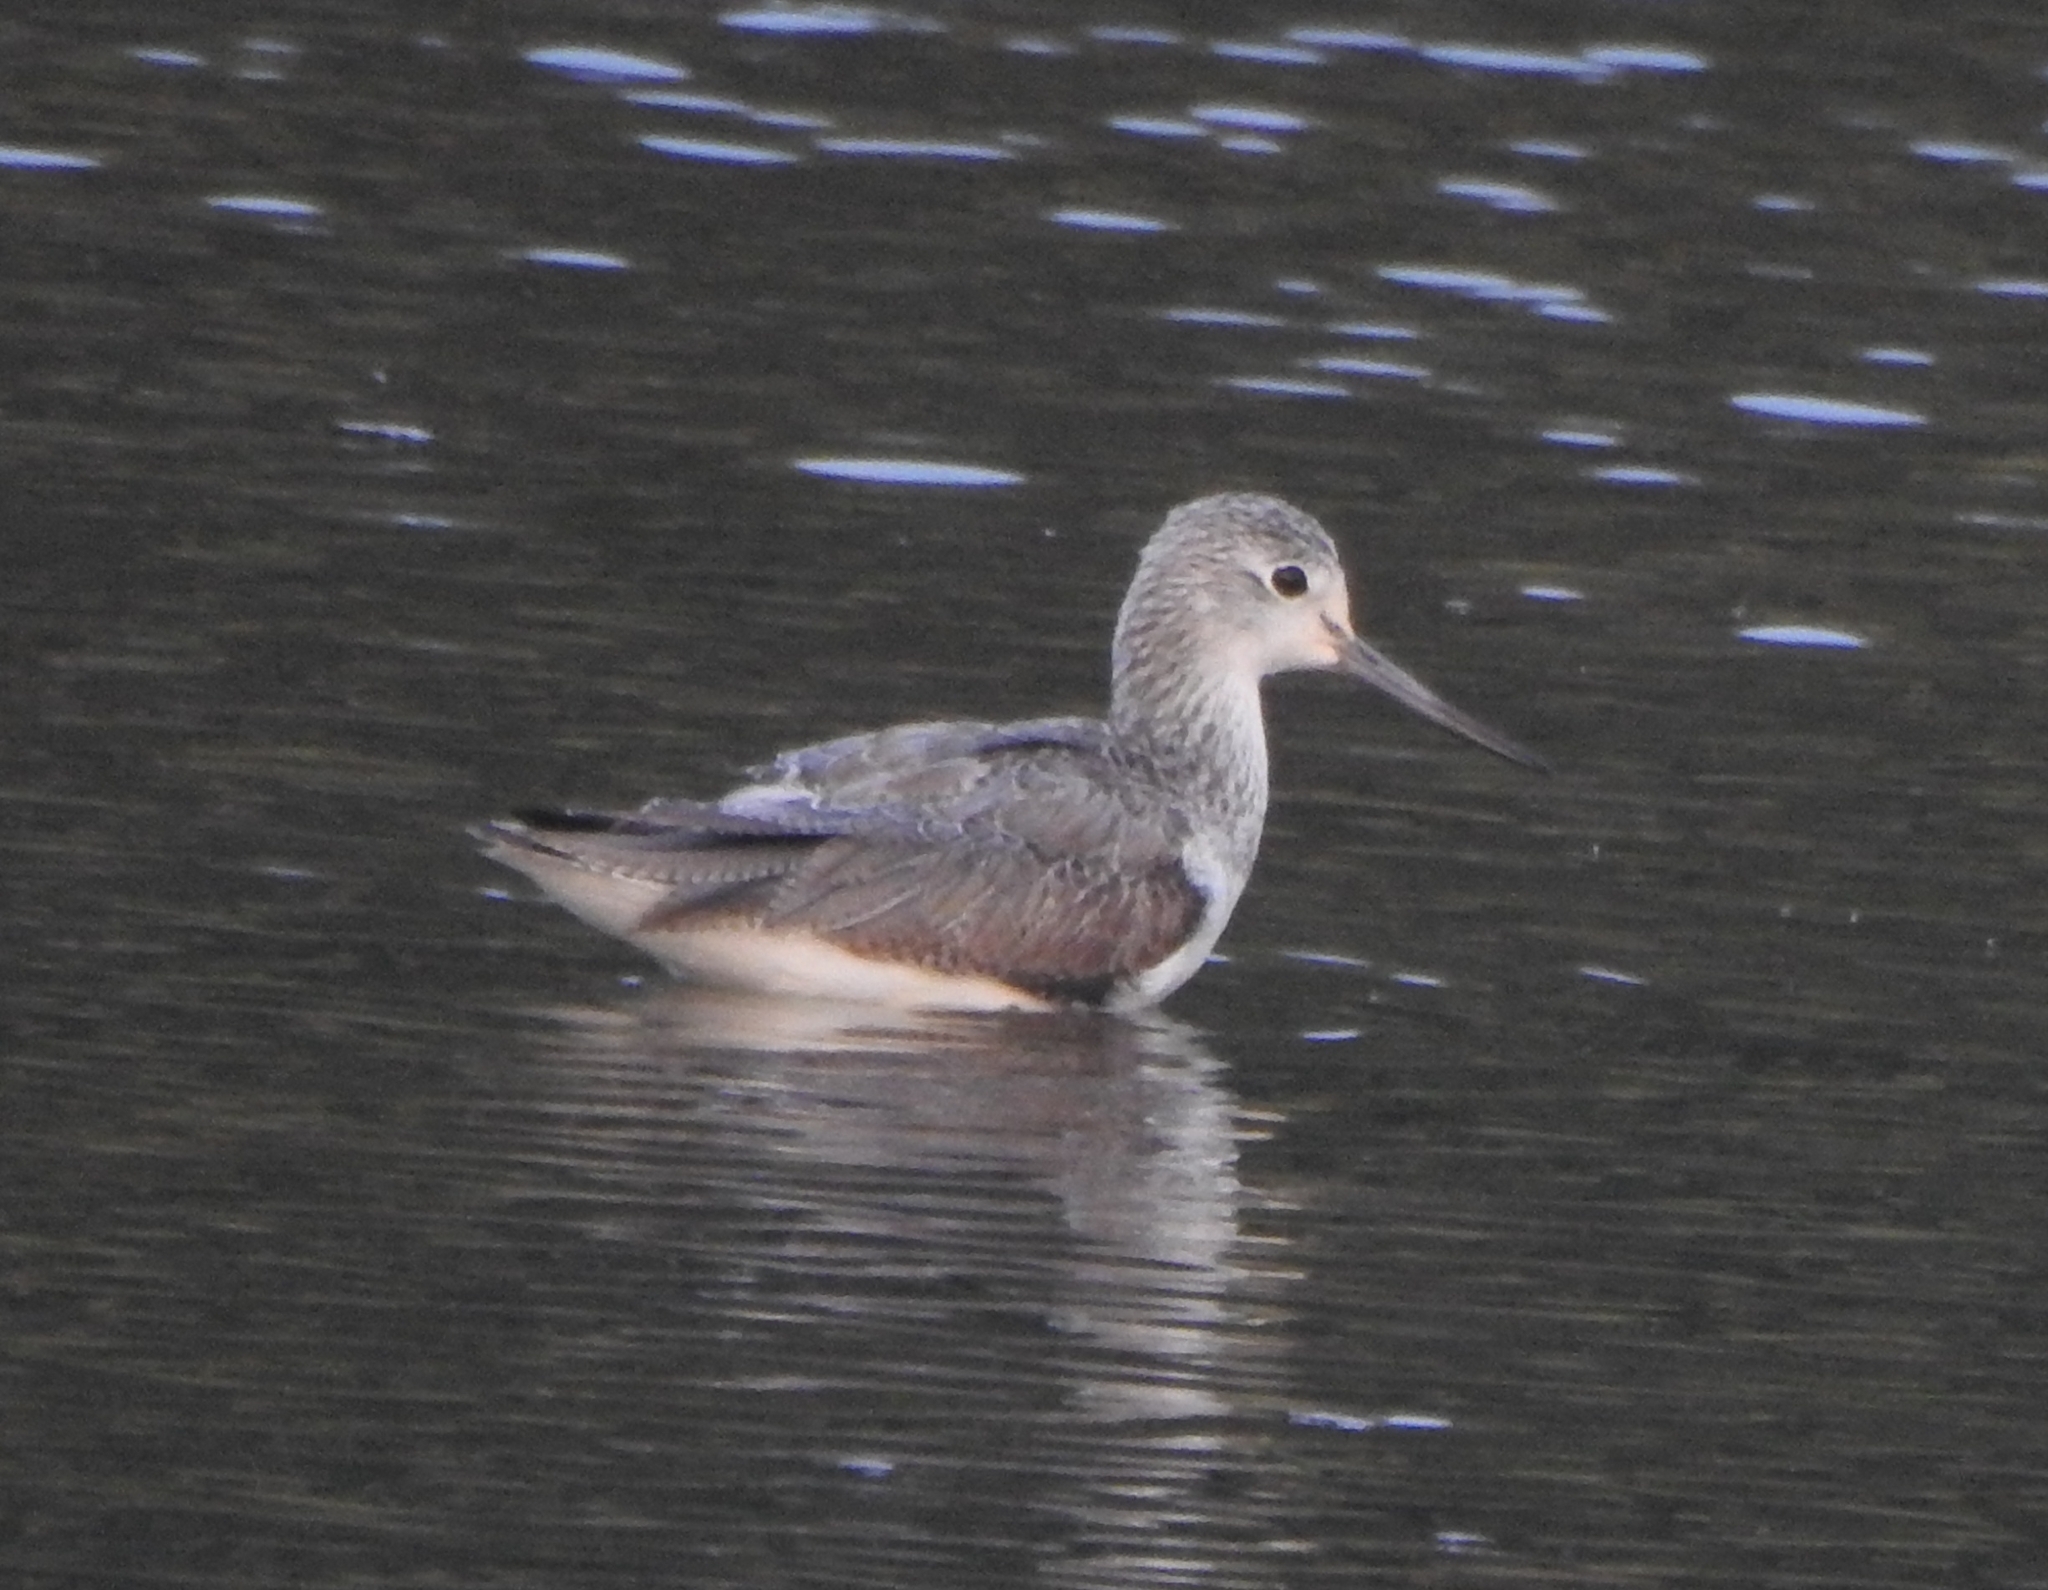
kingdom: Animalia
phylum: Chordata
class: Aves
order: Charadriiformes
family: Scolopacidae
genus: Tringa
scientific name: Tringa nebularia
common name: Common greenshank
